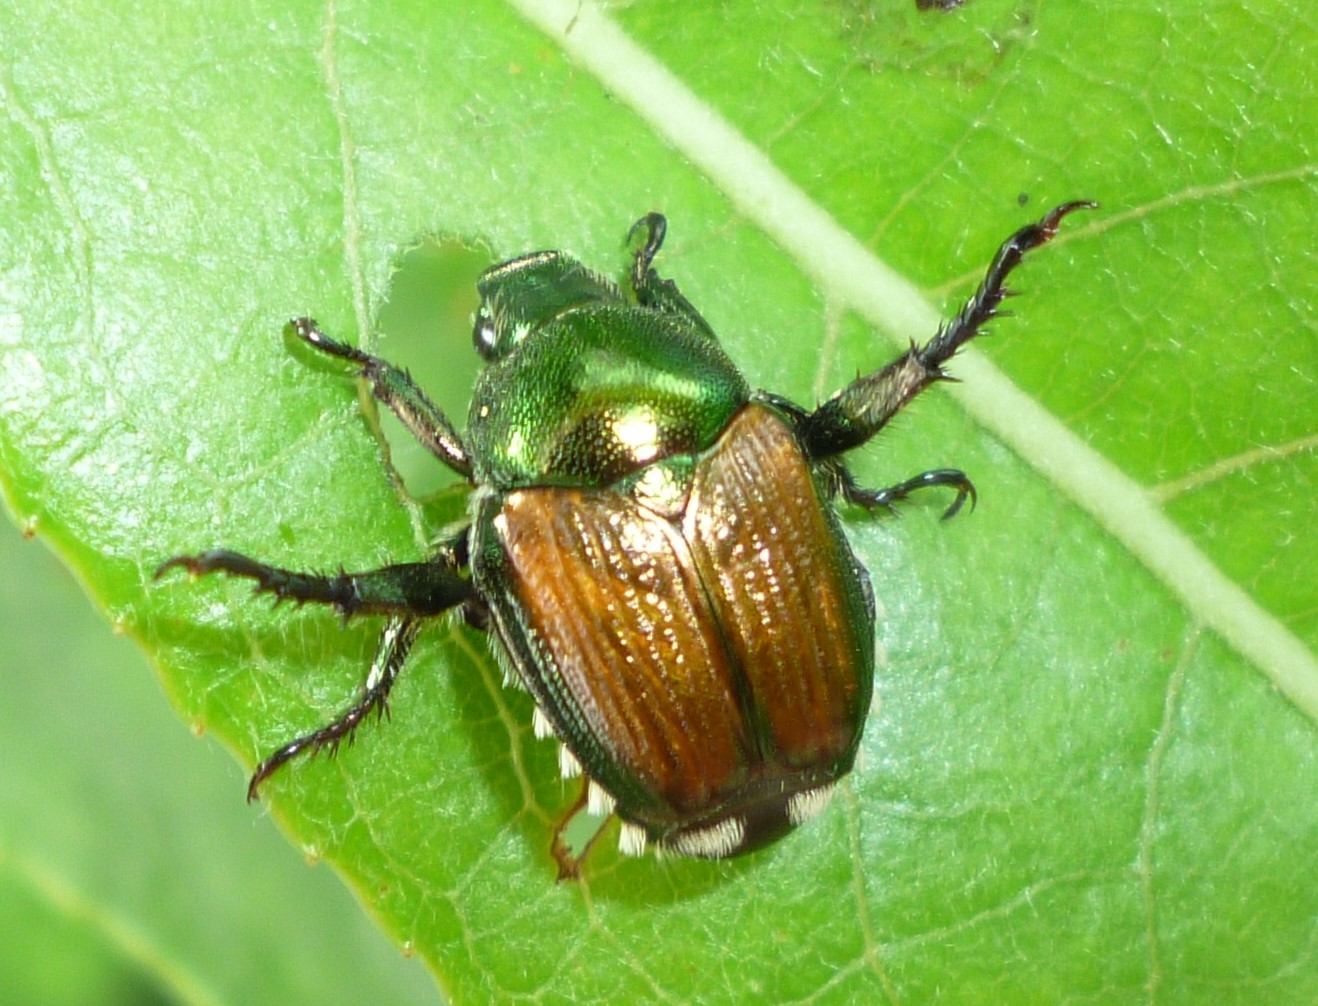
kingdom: Animalia
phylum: Arthropoda
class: Insecta
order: Coleoptera
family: Scarabaeidae
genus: Popillia
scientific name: Popillia japonica
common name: Japanese beetle
